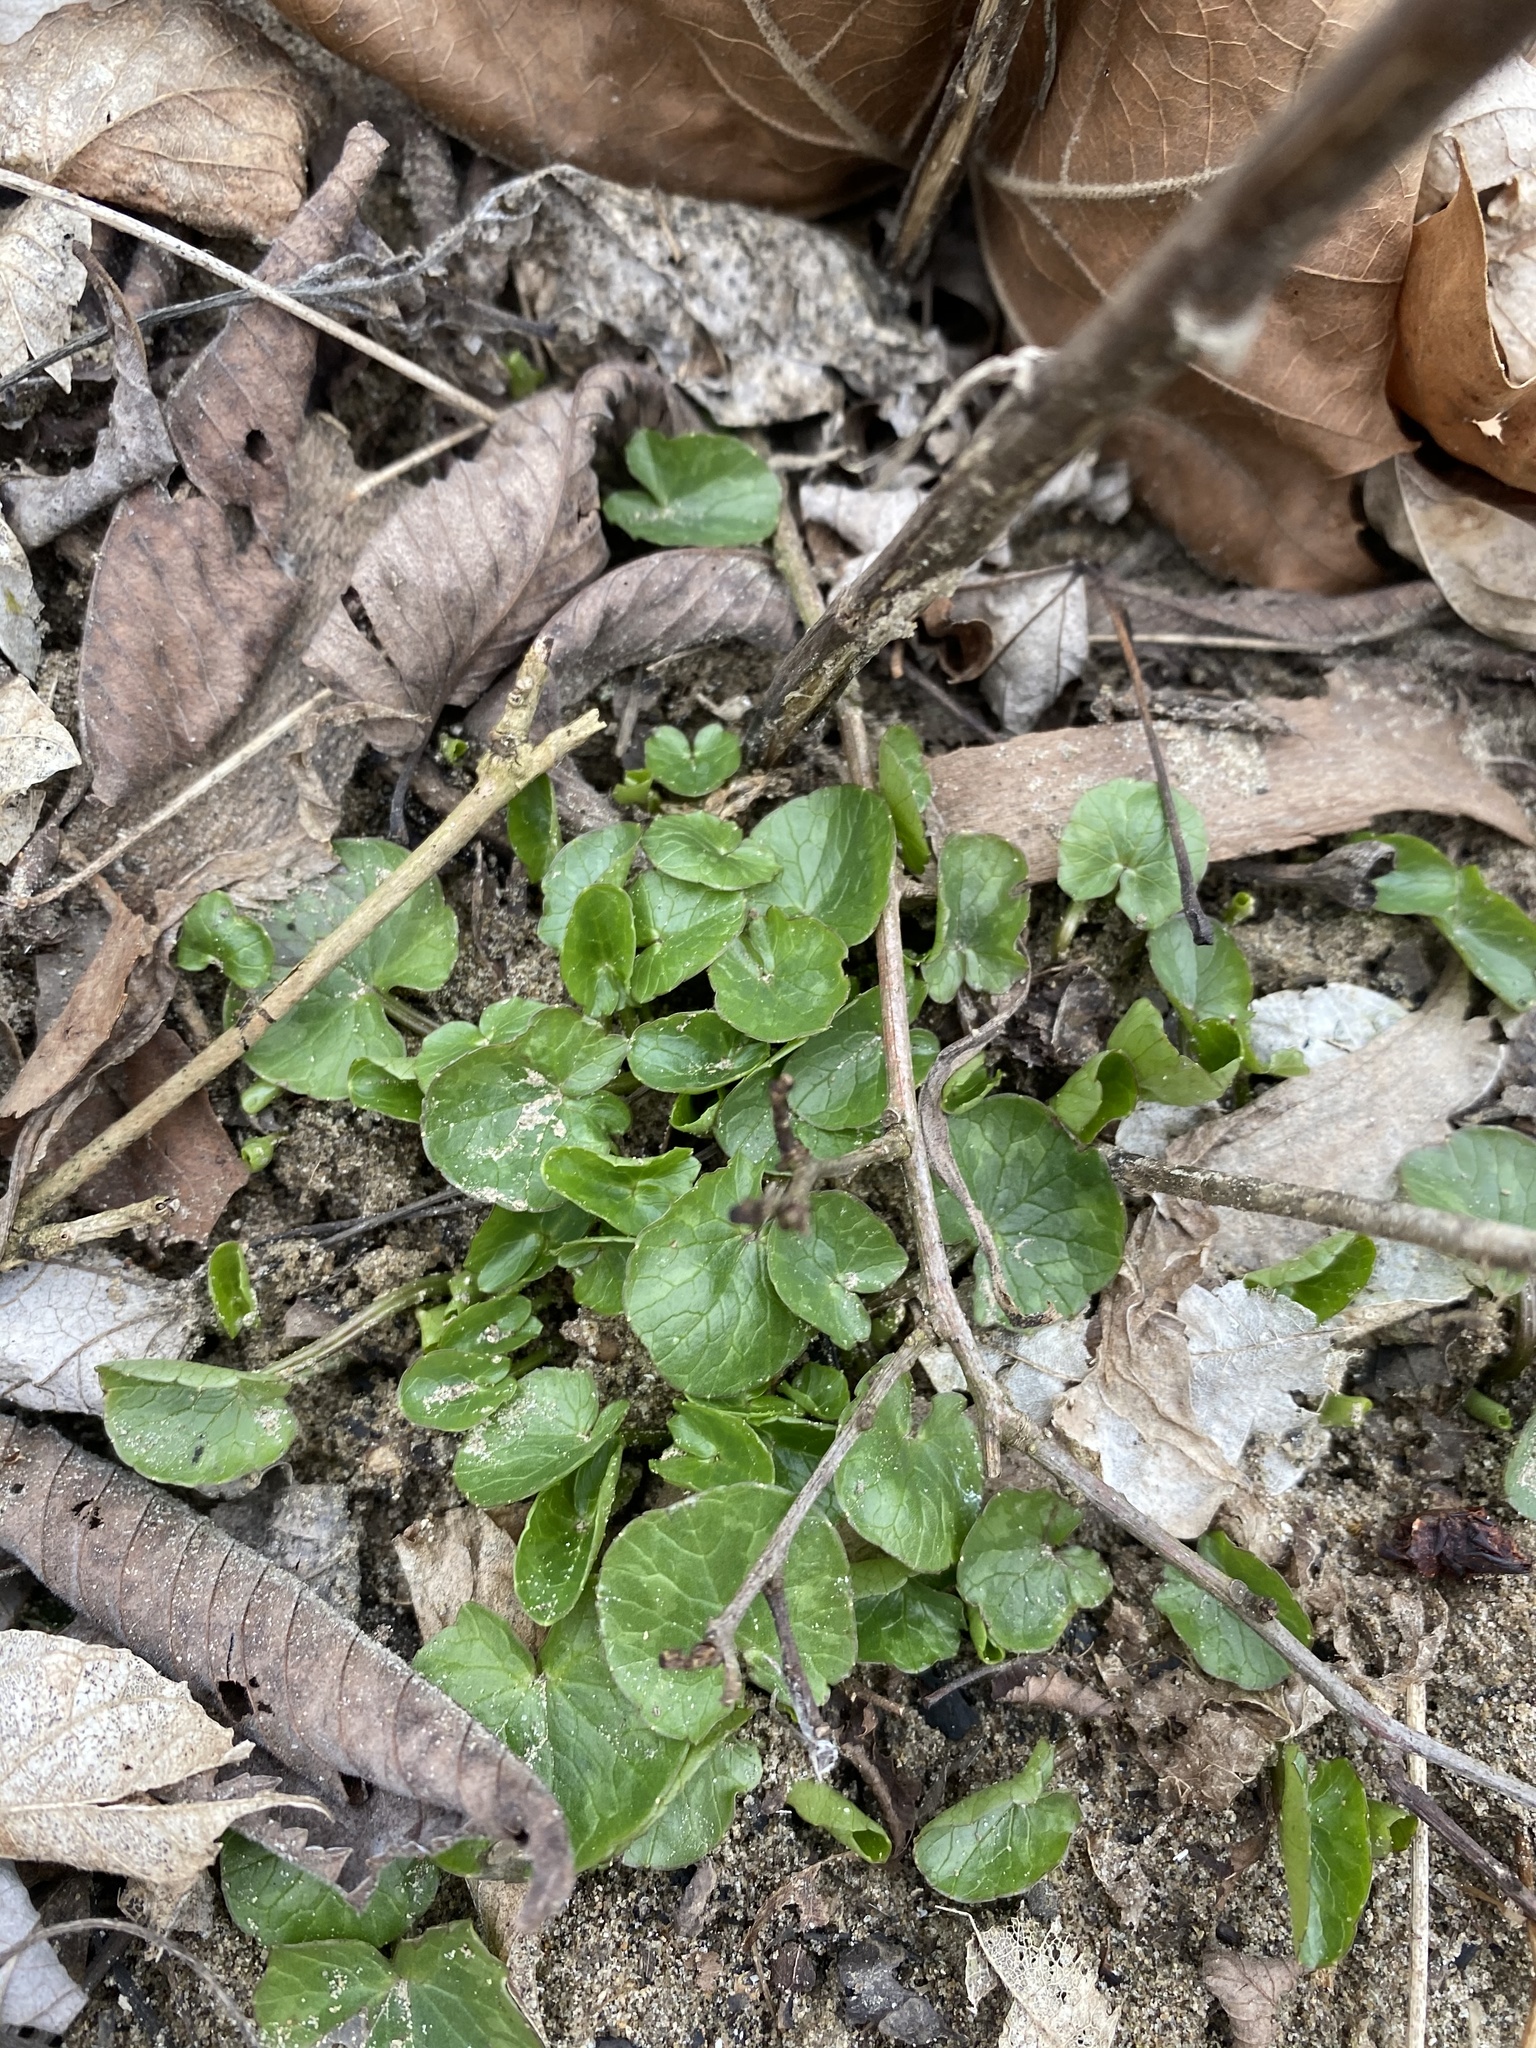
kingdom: Plantae
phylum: Tracheophyta
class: Magnoliopsida
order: Ranunculales
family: Ranunculaceae
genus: Ficaria
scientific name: Ficaria verna
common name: Lesser celandine
